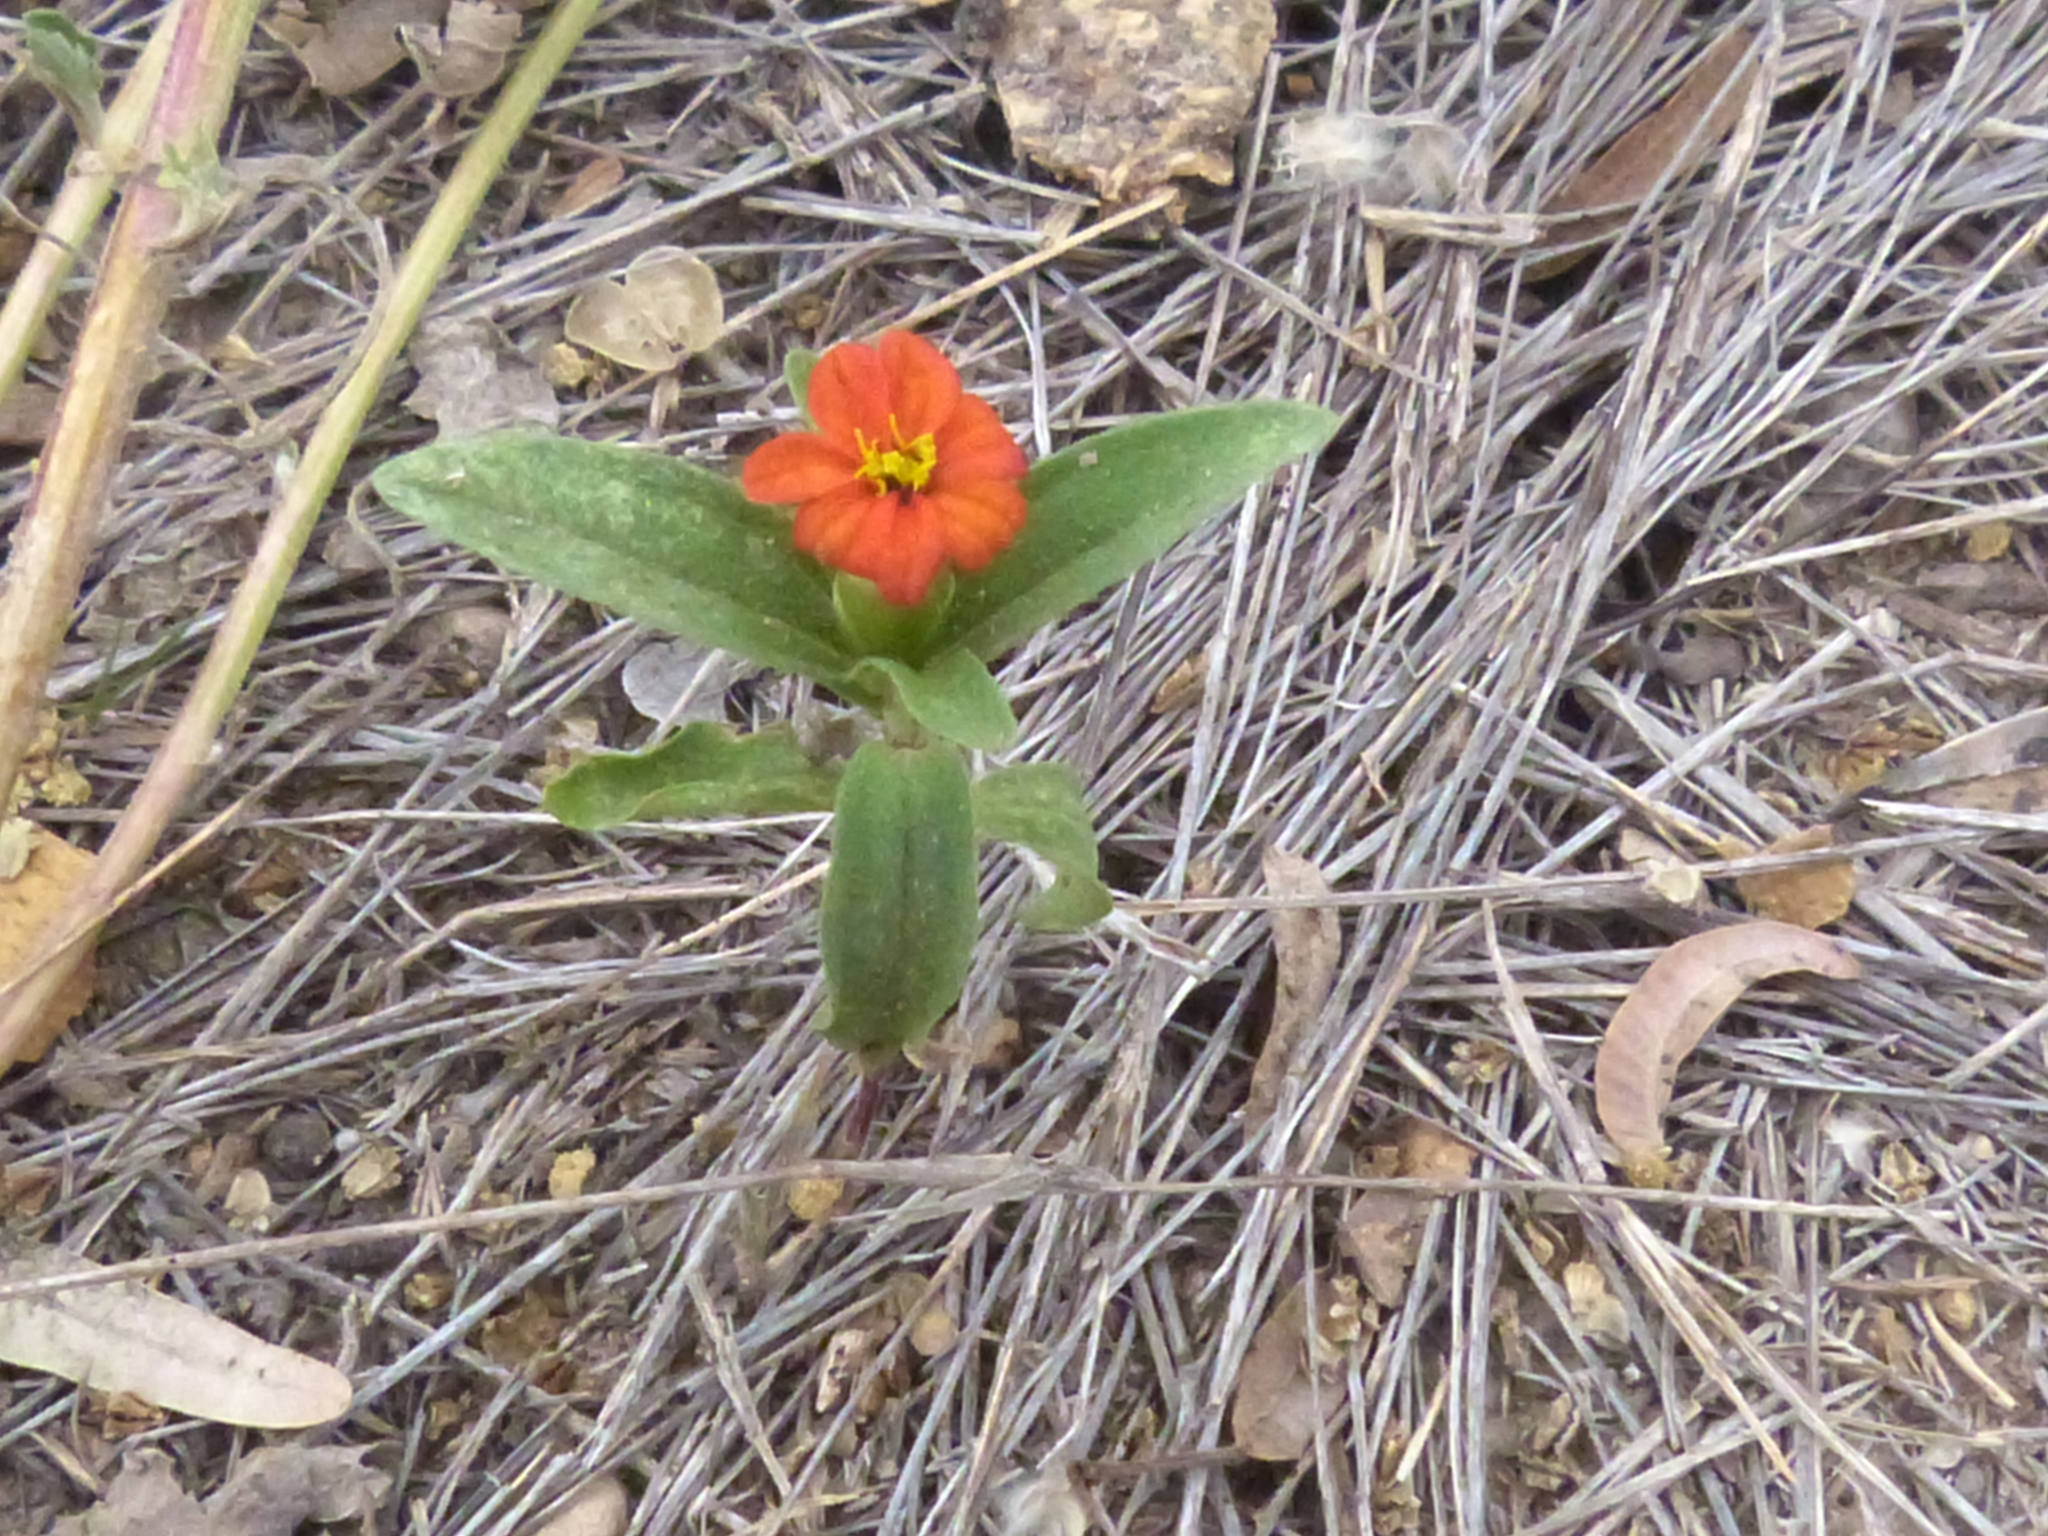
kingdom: Plantae
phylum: Tracheophyta
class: Magnoliopsida
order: Asterales
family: Asteraceae
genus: Zinnia
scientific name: Zinnia peruviana
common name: Peruvian zinnia
